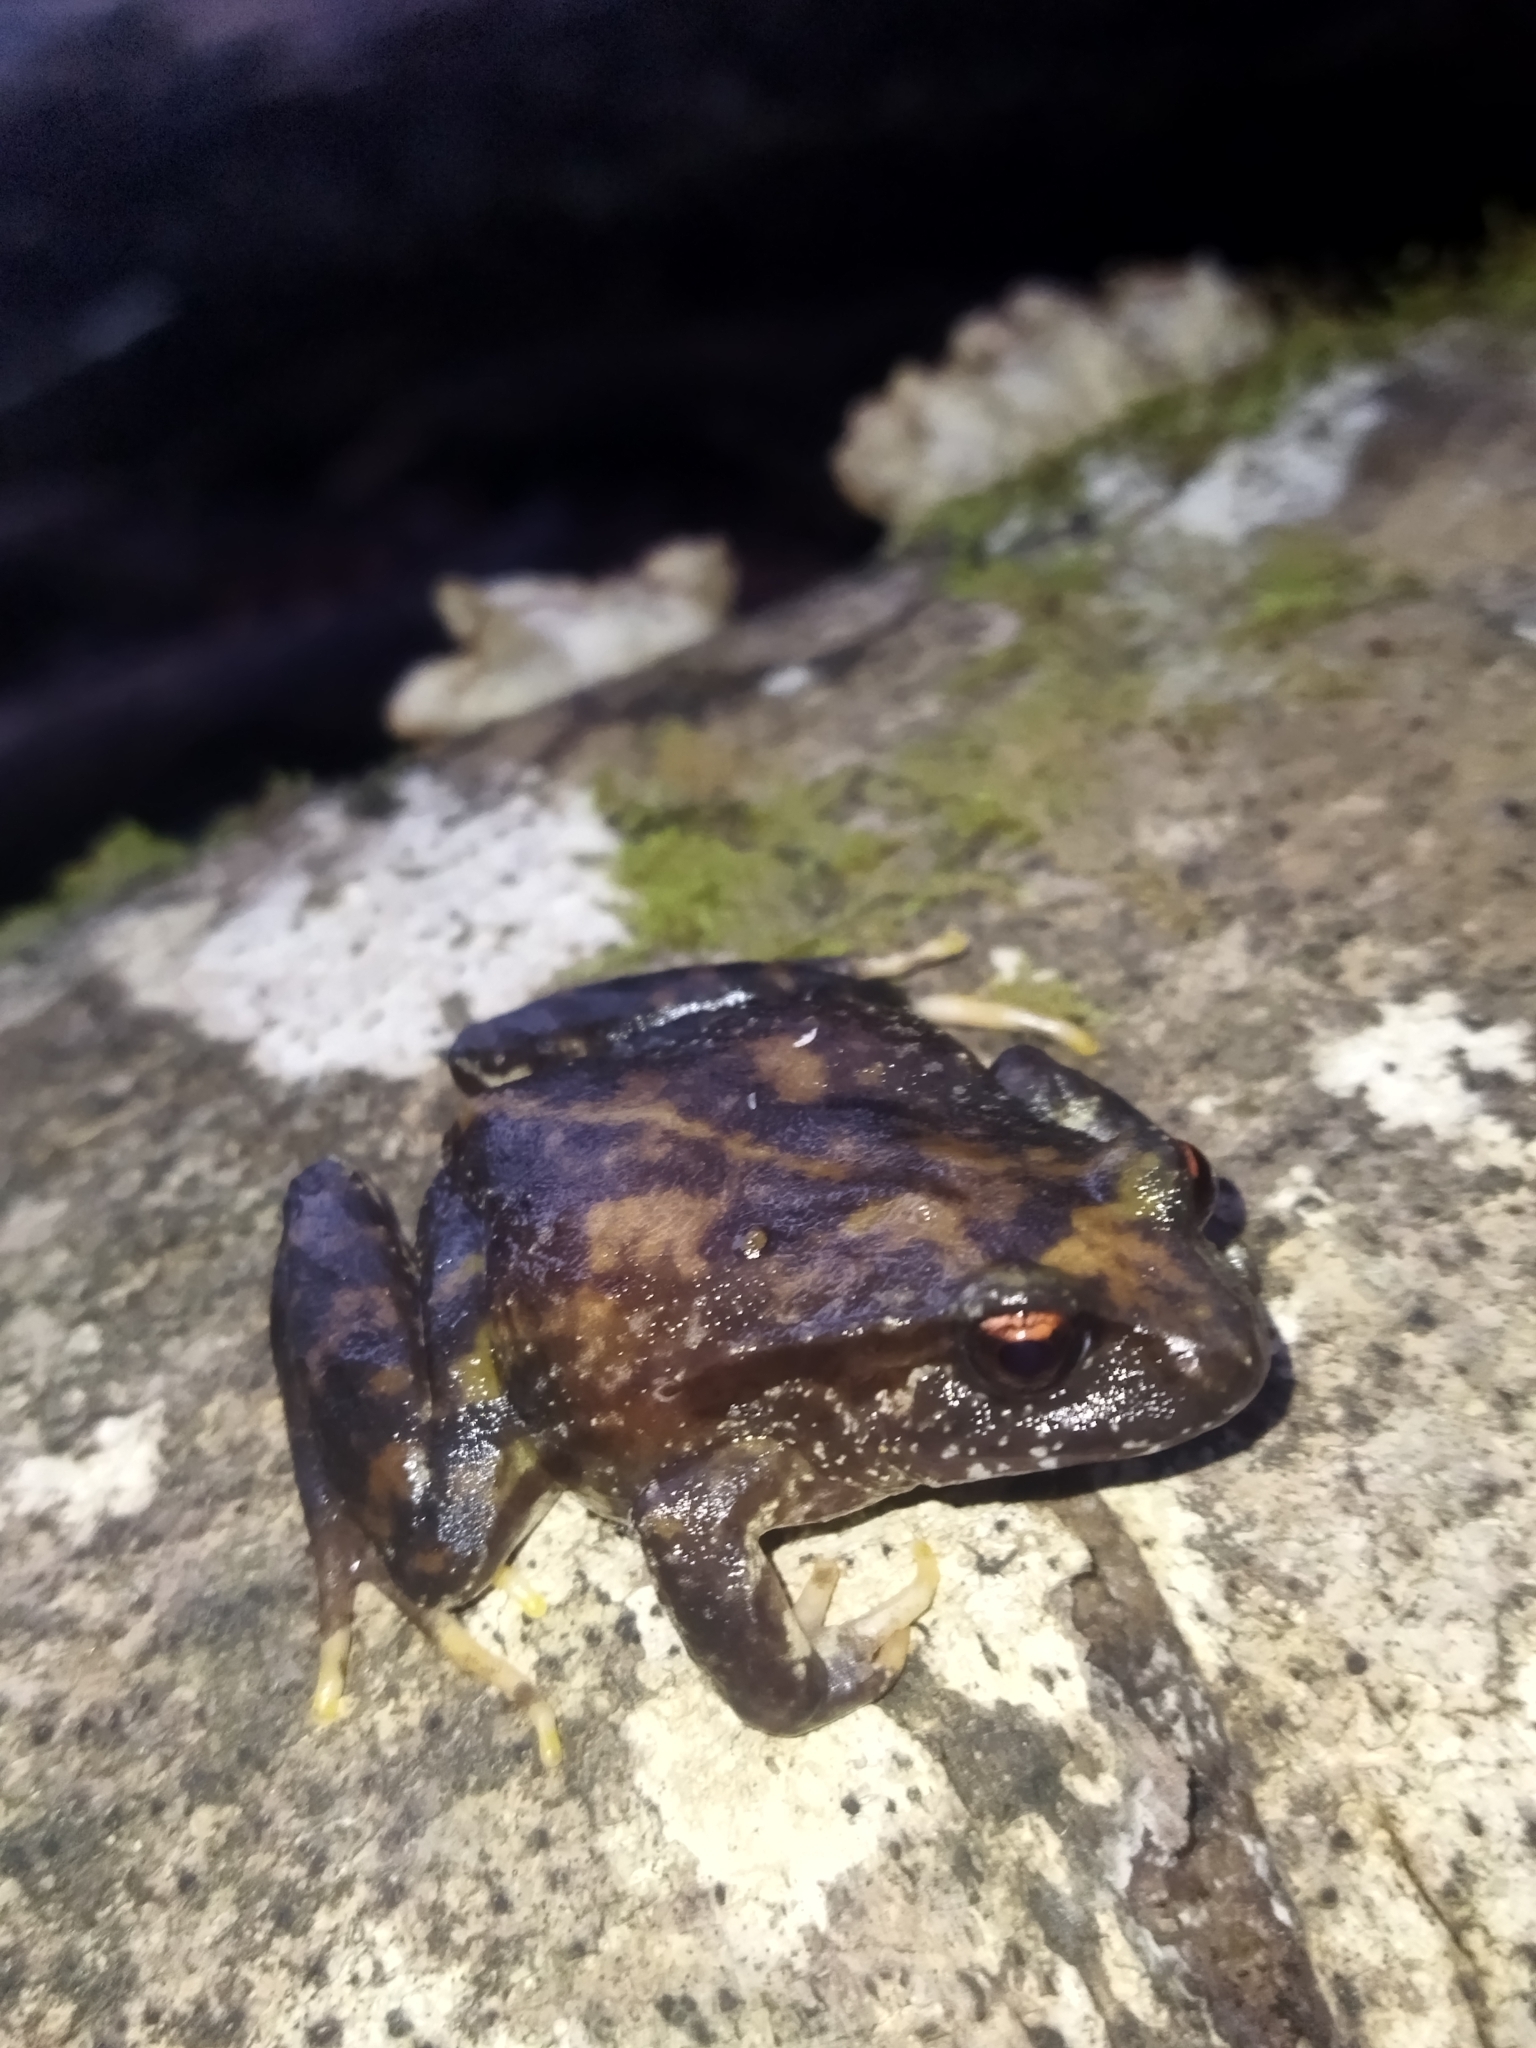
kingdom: Animalia
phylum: Chordata
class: Amphibia
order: Anura
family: Alsodidae
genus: Eupsophus
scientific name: Eupsophus roseus
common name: Rosy ground frog
